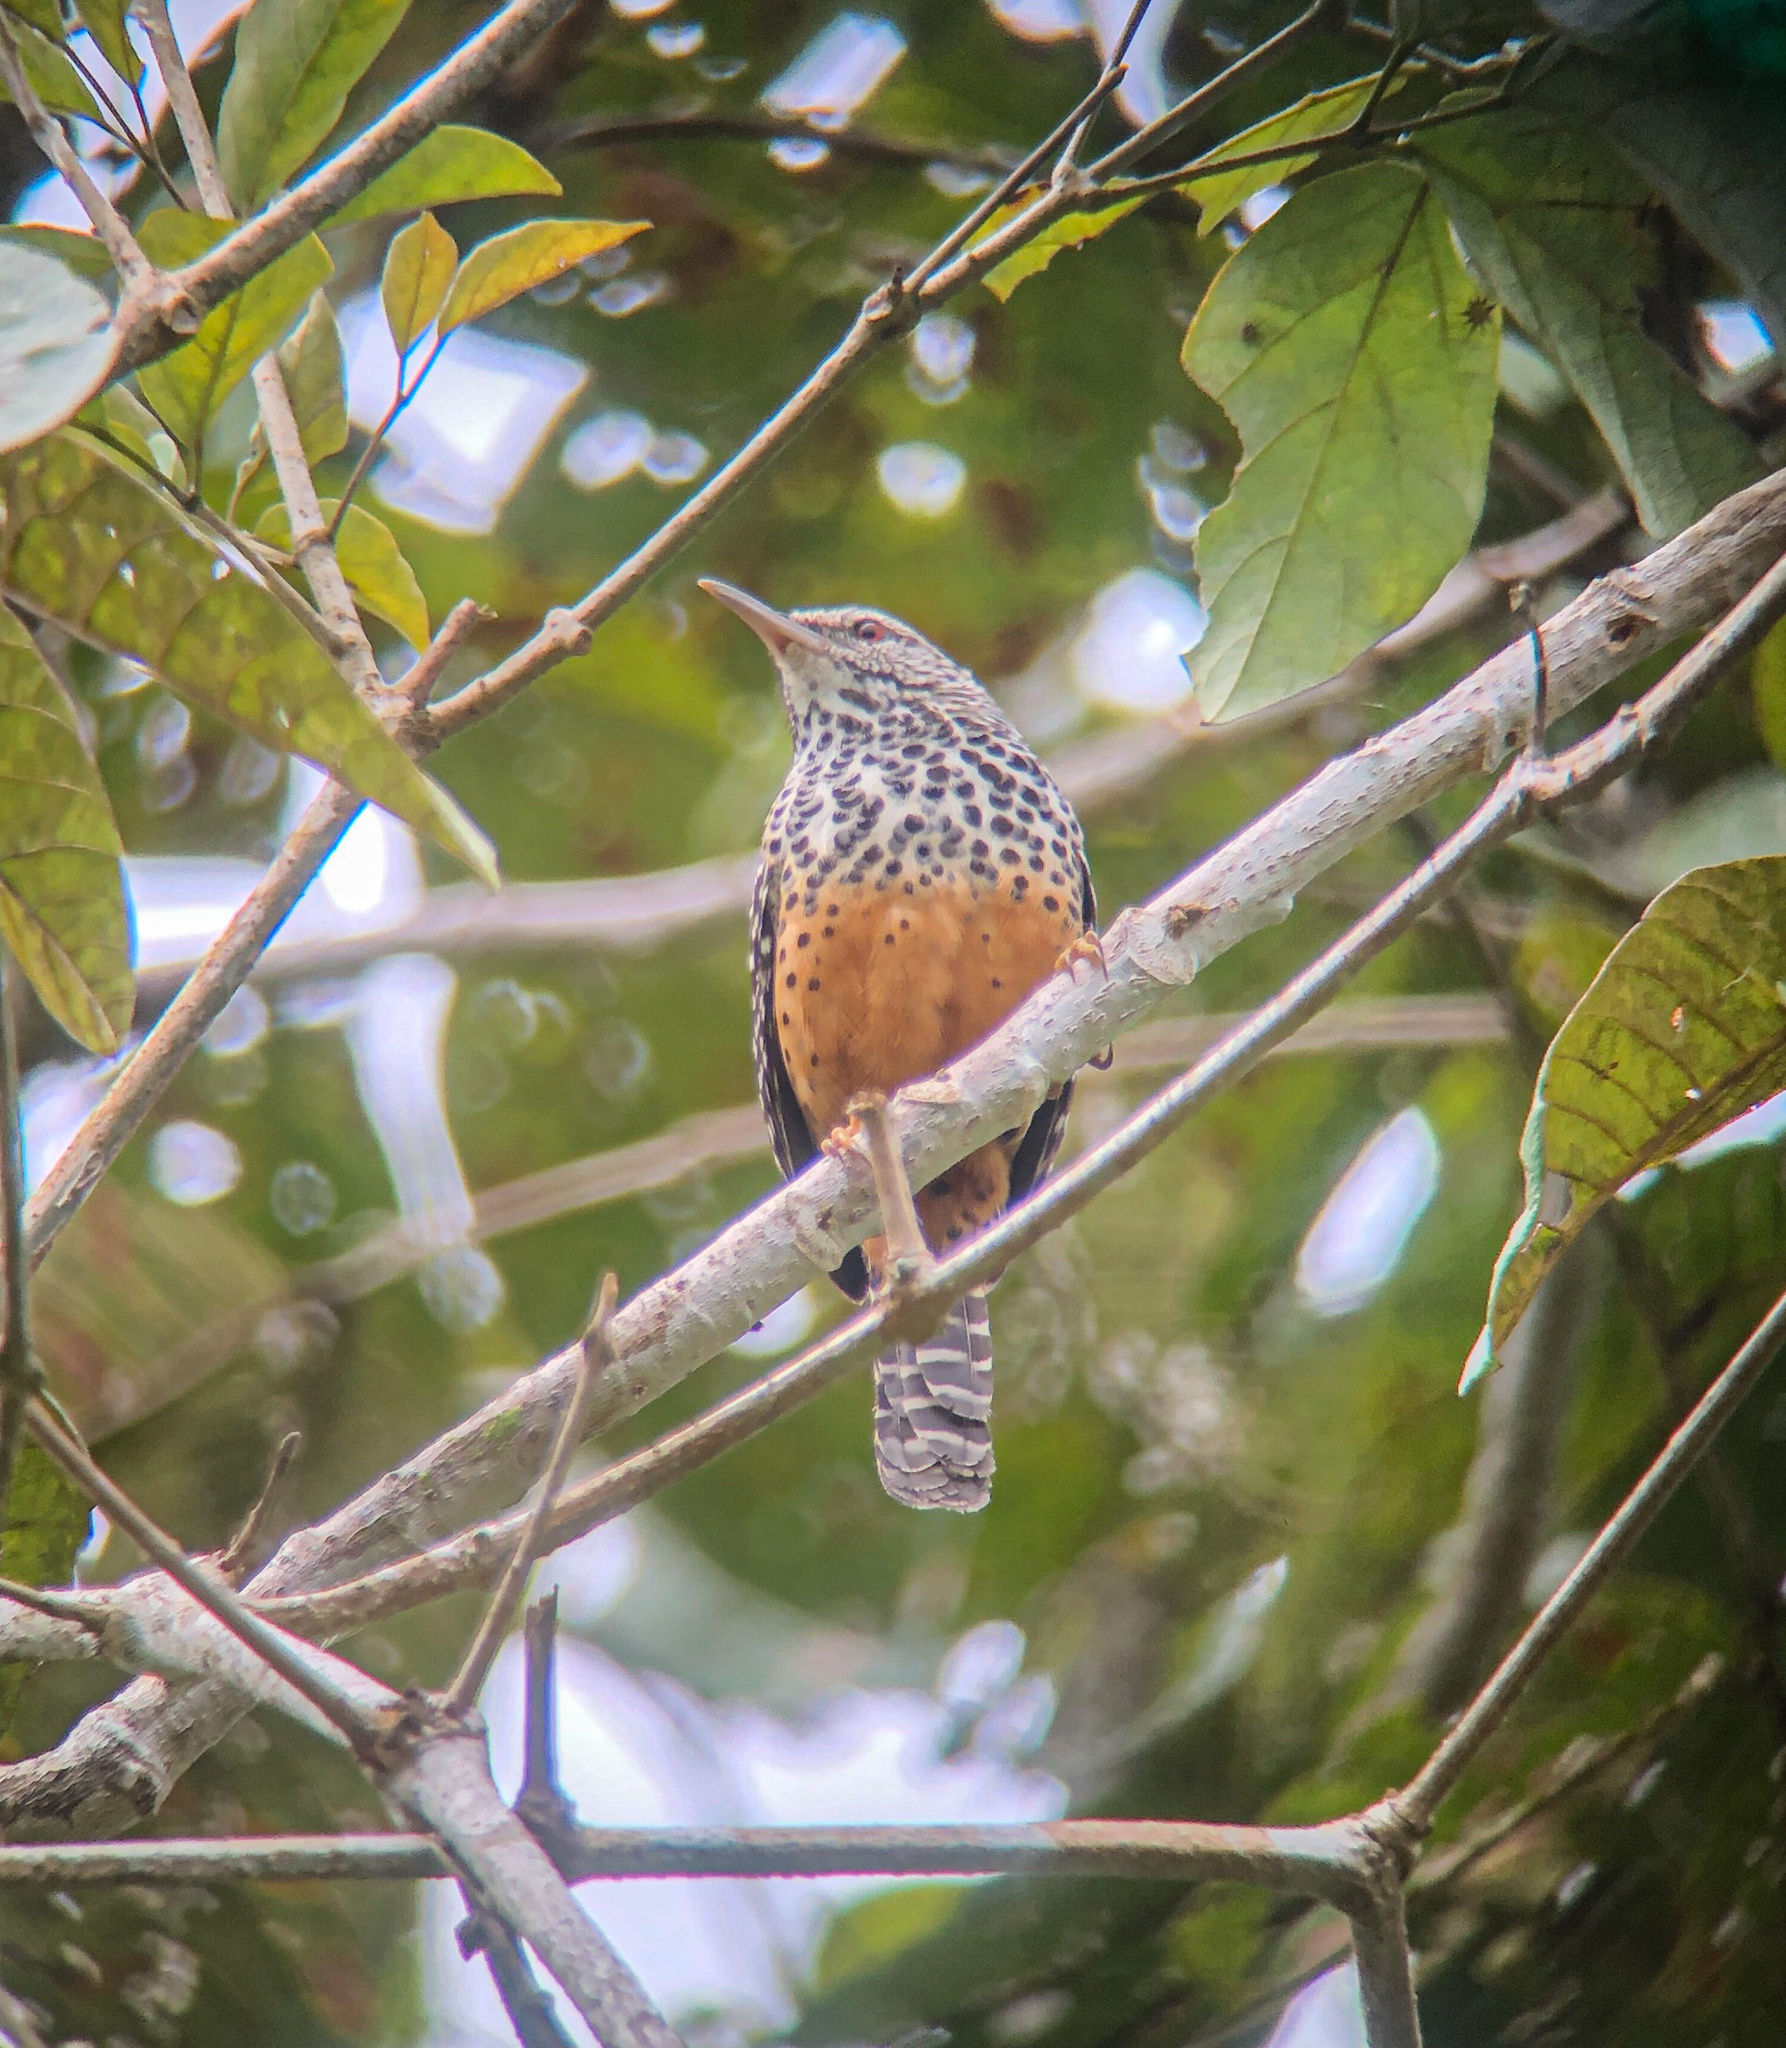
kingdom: Animalia
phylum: Chordata
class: Aves
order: Passeriformes
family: Troglodytidae
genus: Campylorhynchus
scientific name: Campylorhynchus zonatus
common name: Band-backed wren
